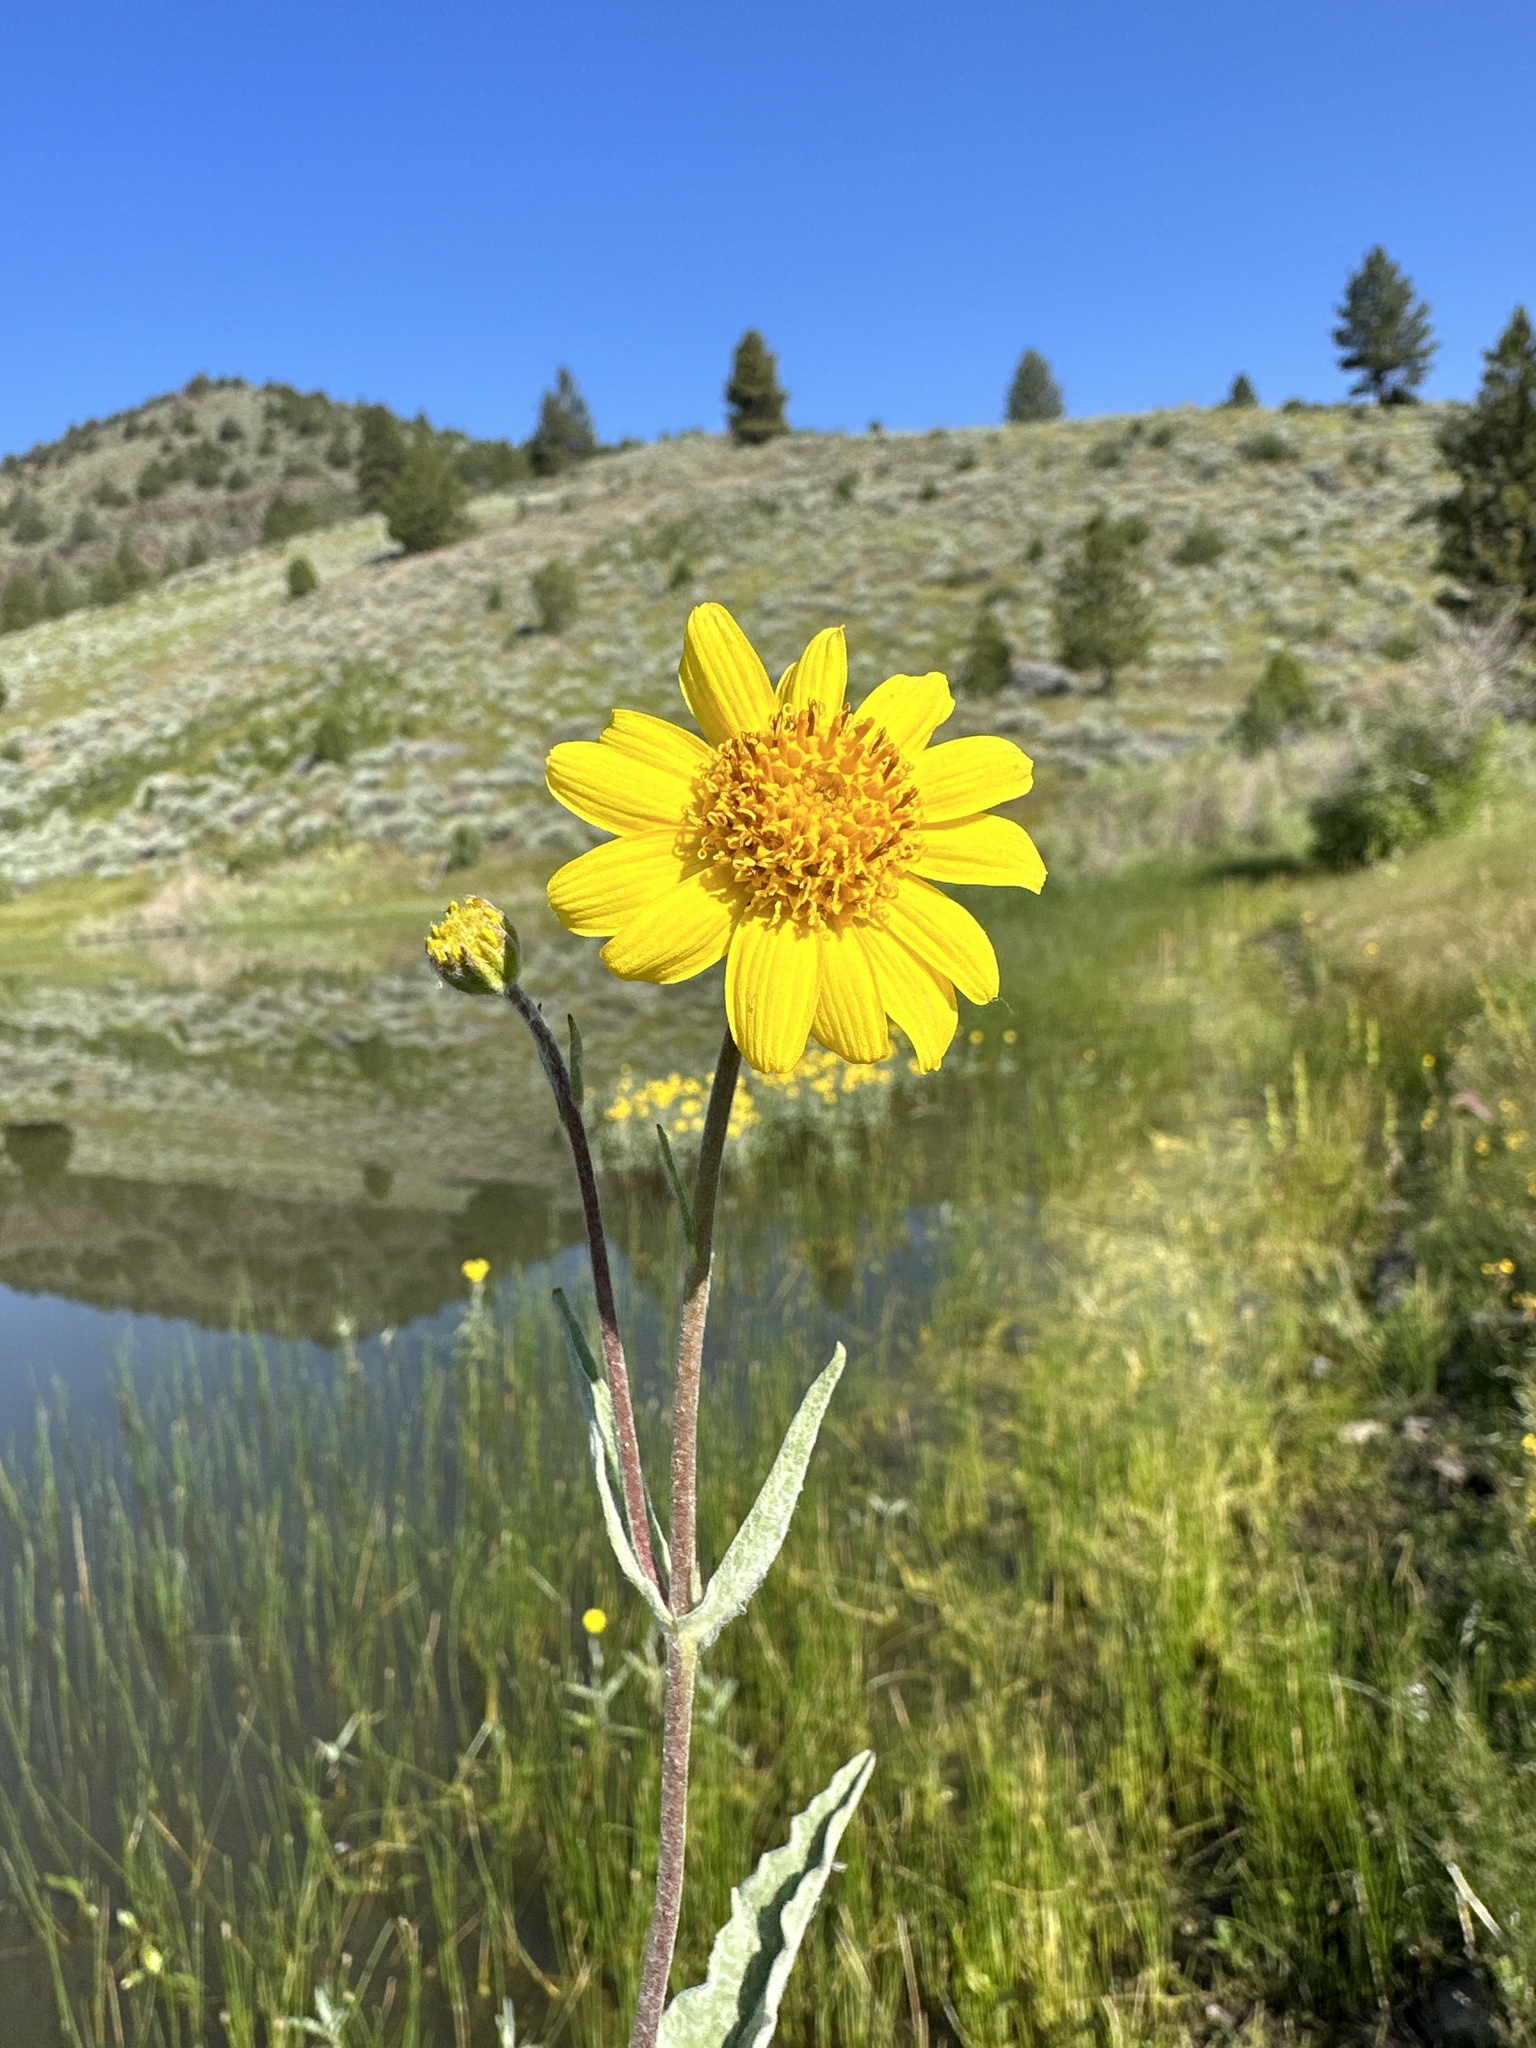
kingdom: Plantae
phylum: Tracheophyta
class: Magnoliopsida
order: Asterales
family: Asteraceae
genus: Arnica
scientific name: Arnica chamissonis
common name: Leafy arnica
